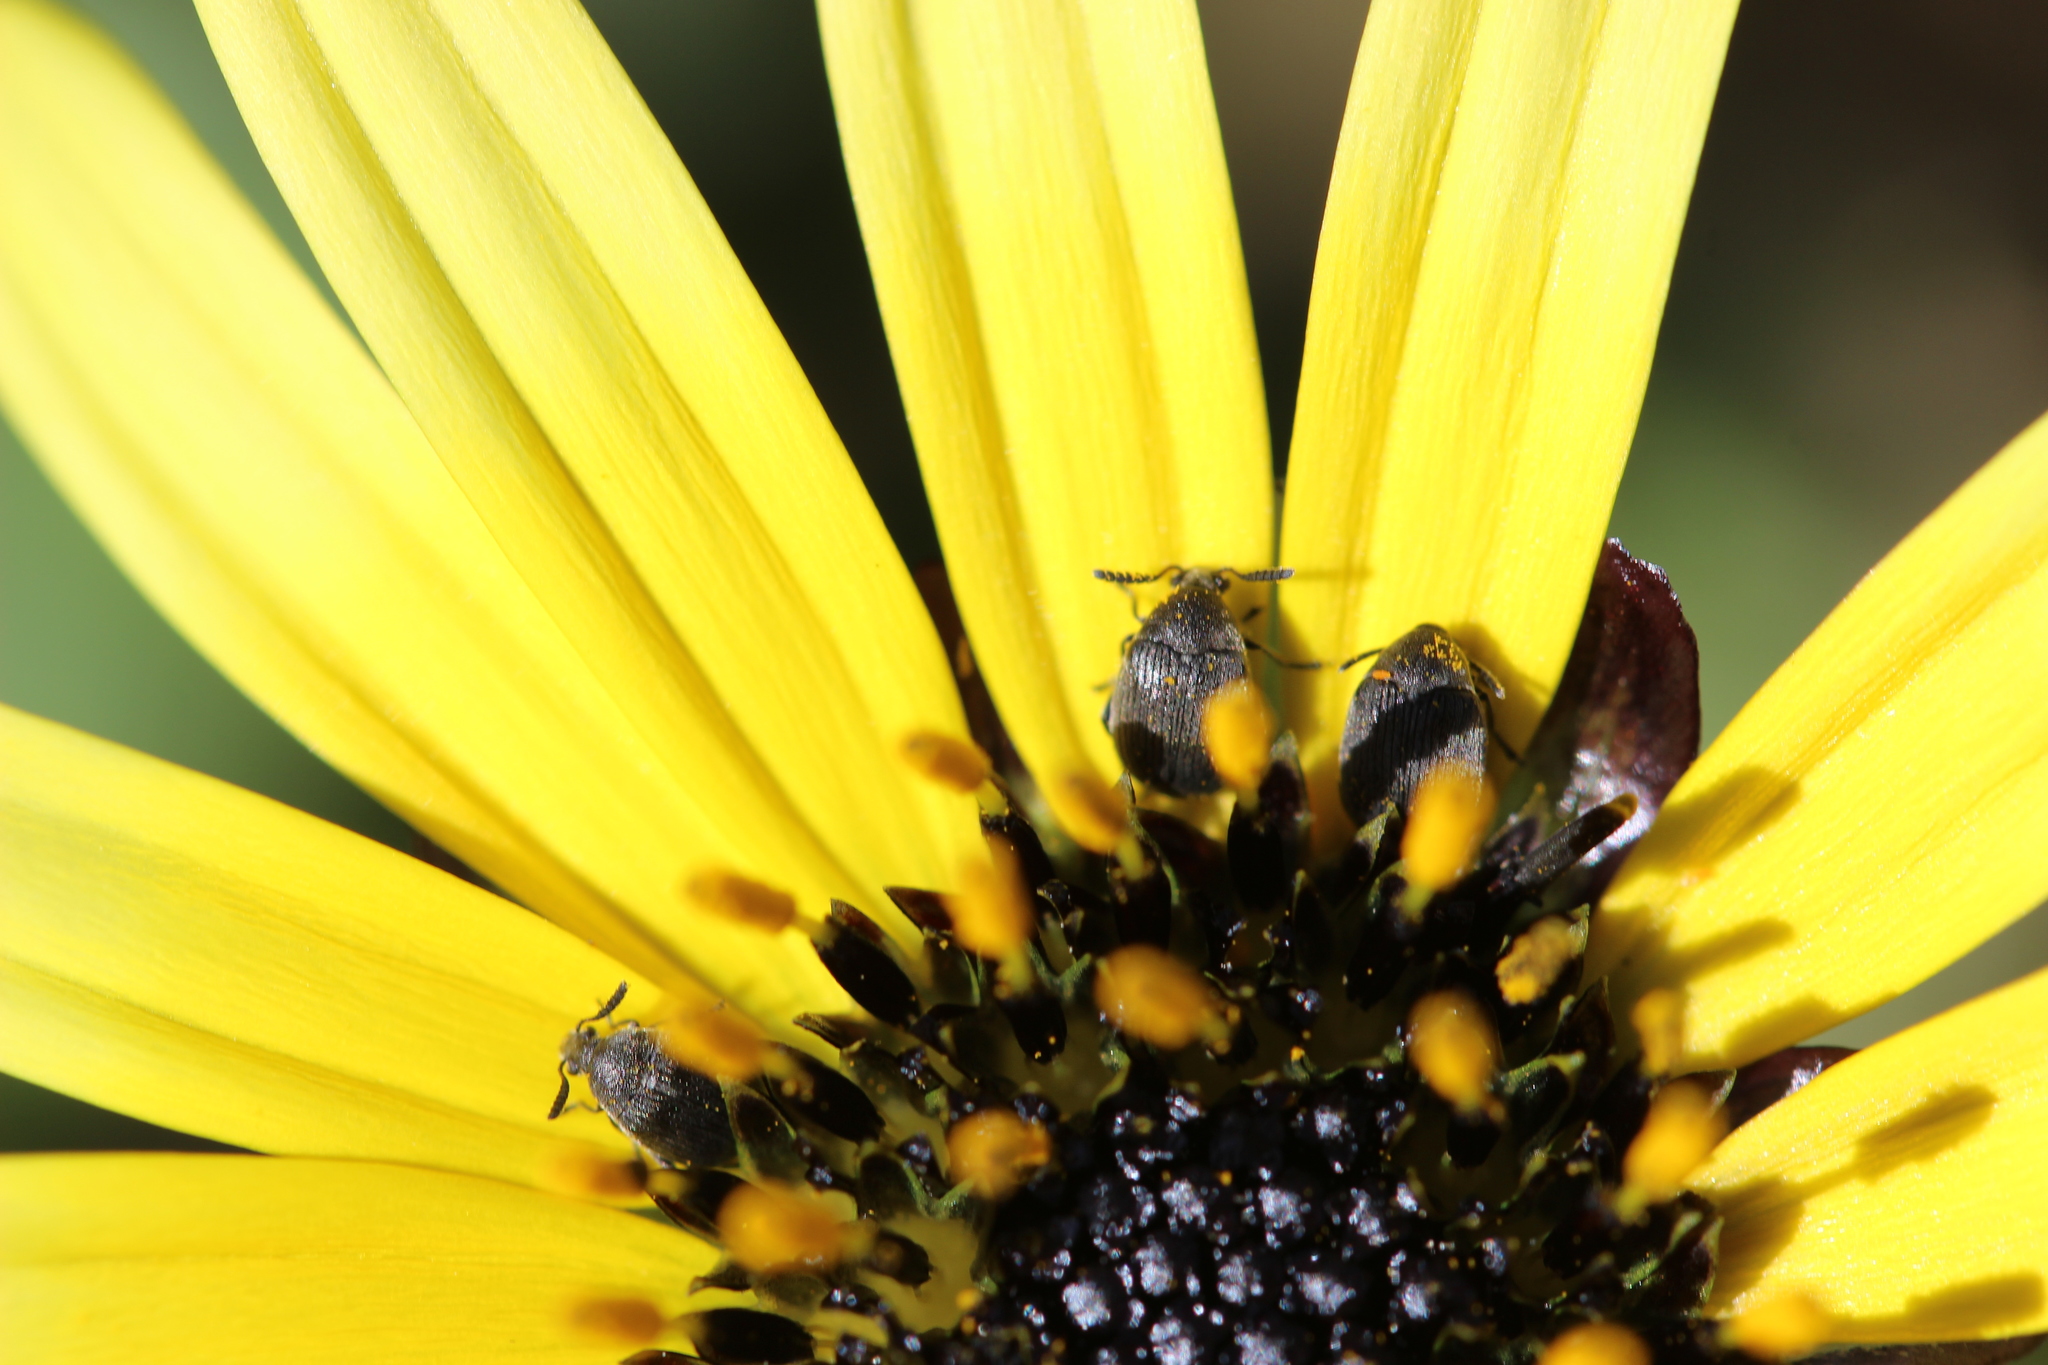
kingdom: Animalia
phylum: Arthropoda
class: Insecta
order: Coleoptera
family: Chrysomelidae
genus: Bruchidius
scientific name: Bruchidius villosus
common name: Scotch broom bruchid
